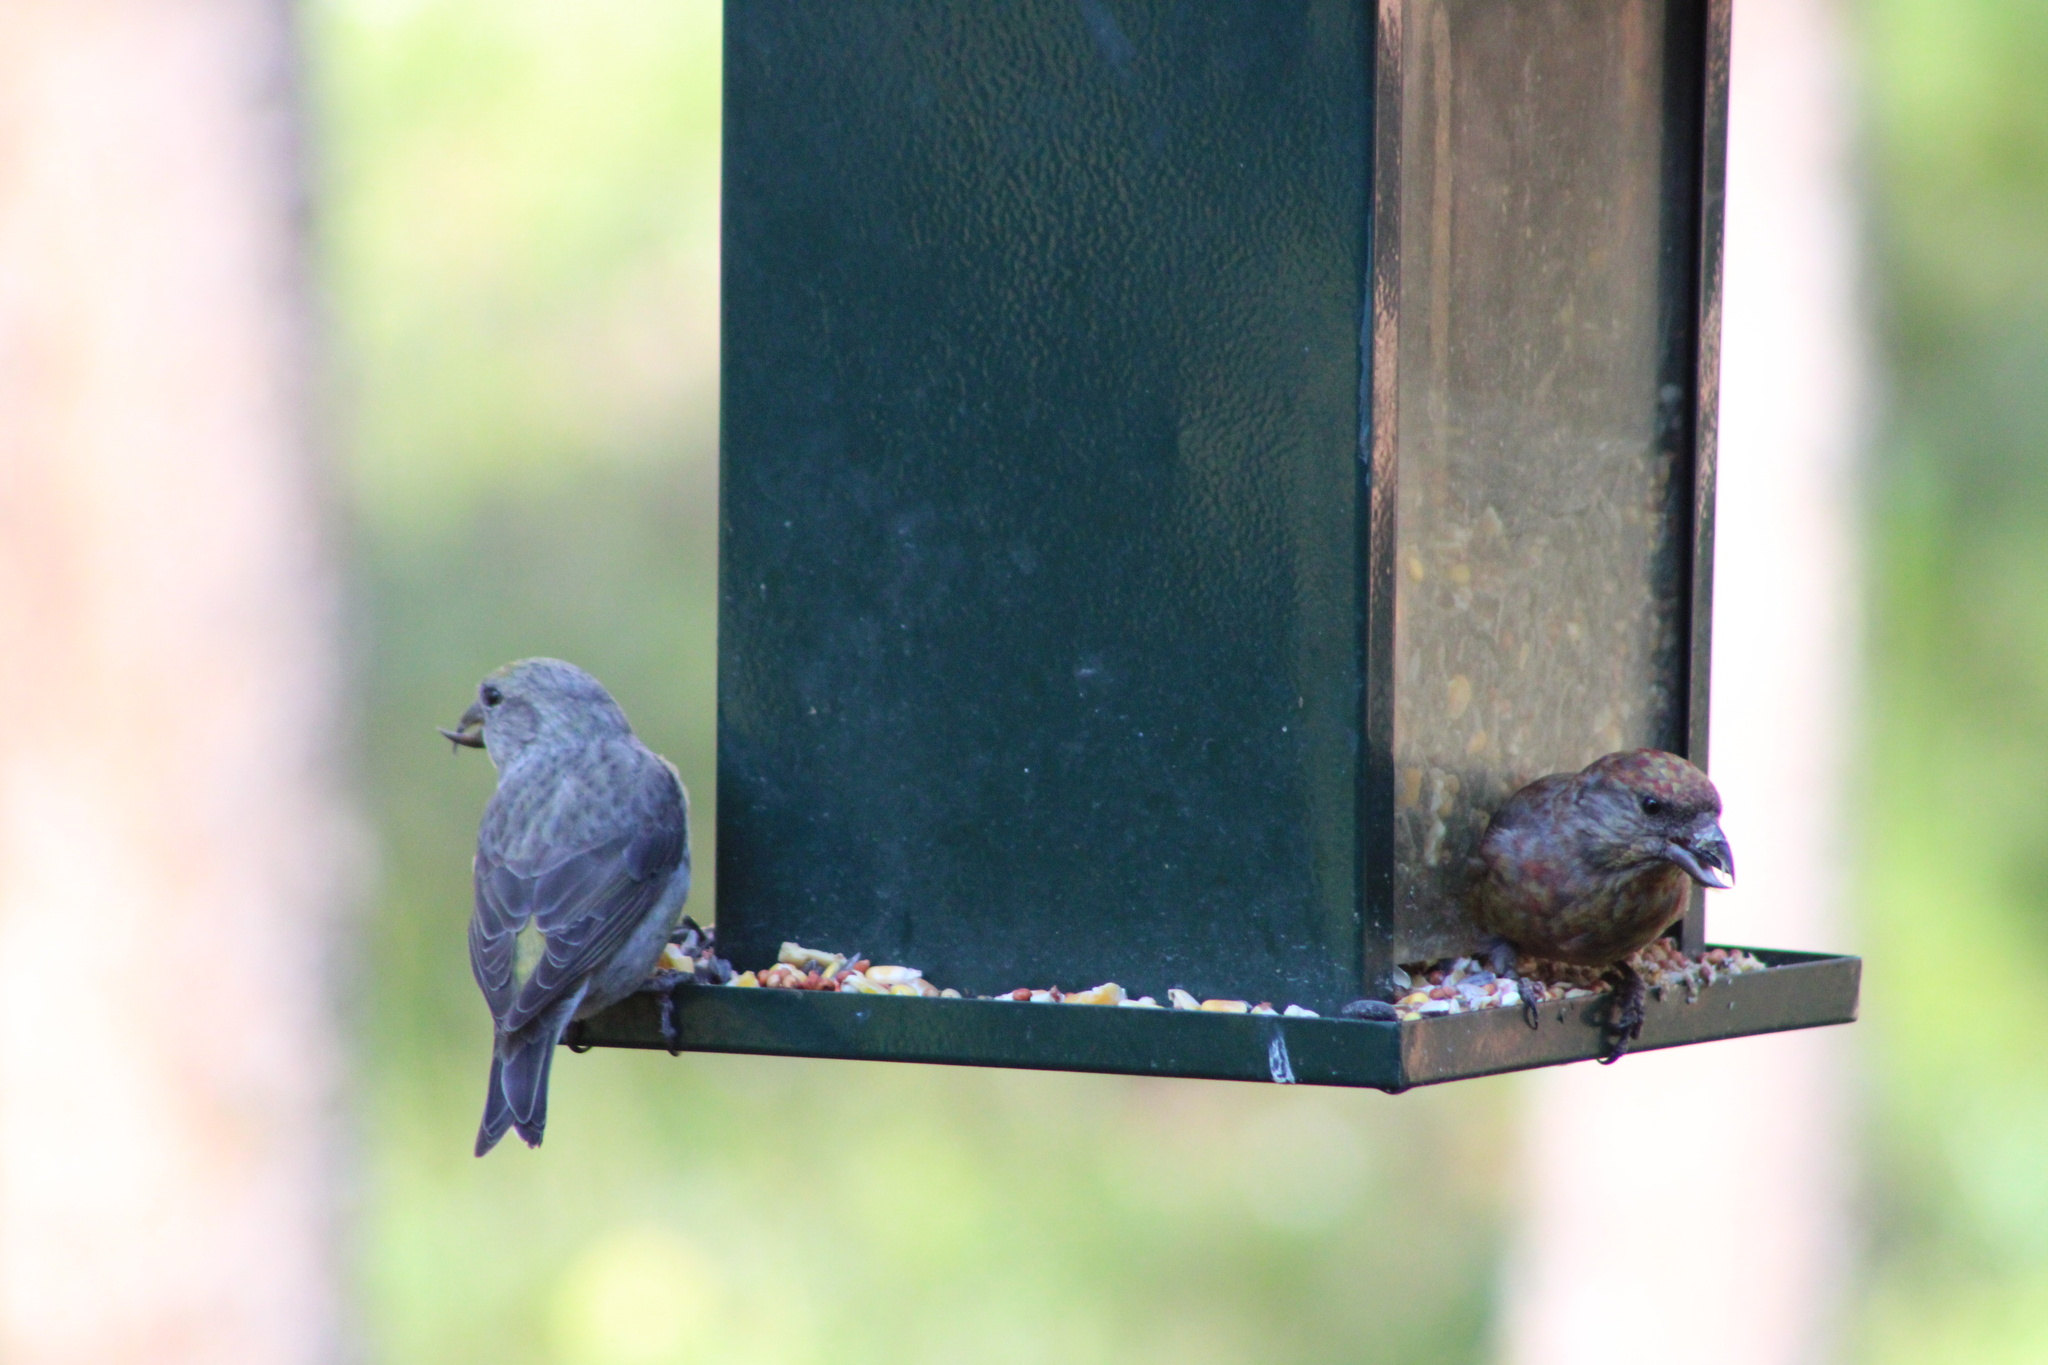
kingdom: Animalia
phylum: Chordata
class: Aves
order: Passeriformes
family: Fringillidae
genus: Loxia
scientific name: Loxia curvirostra
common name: Red crossbill
